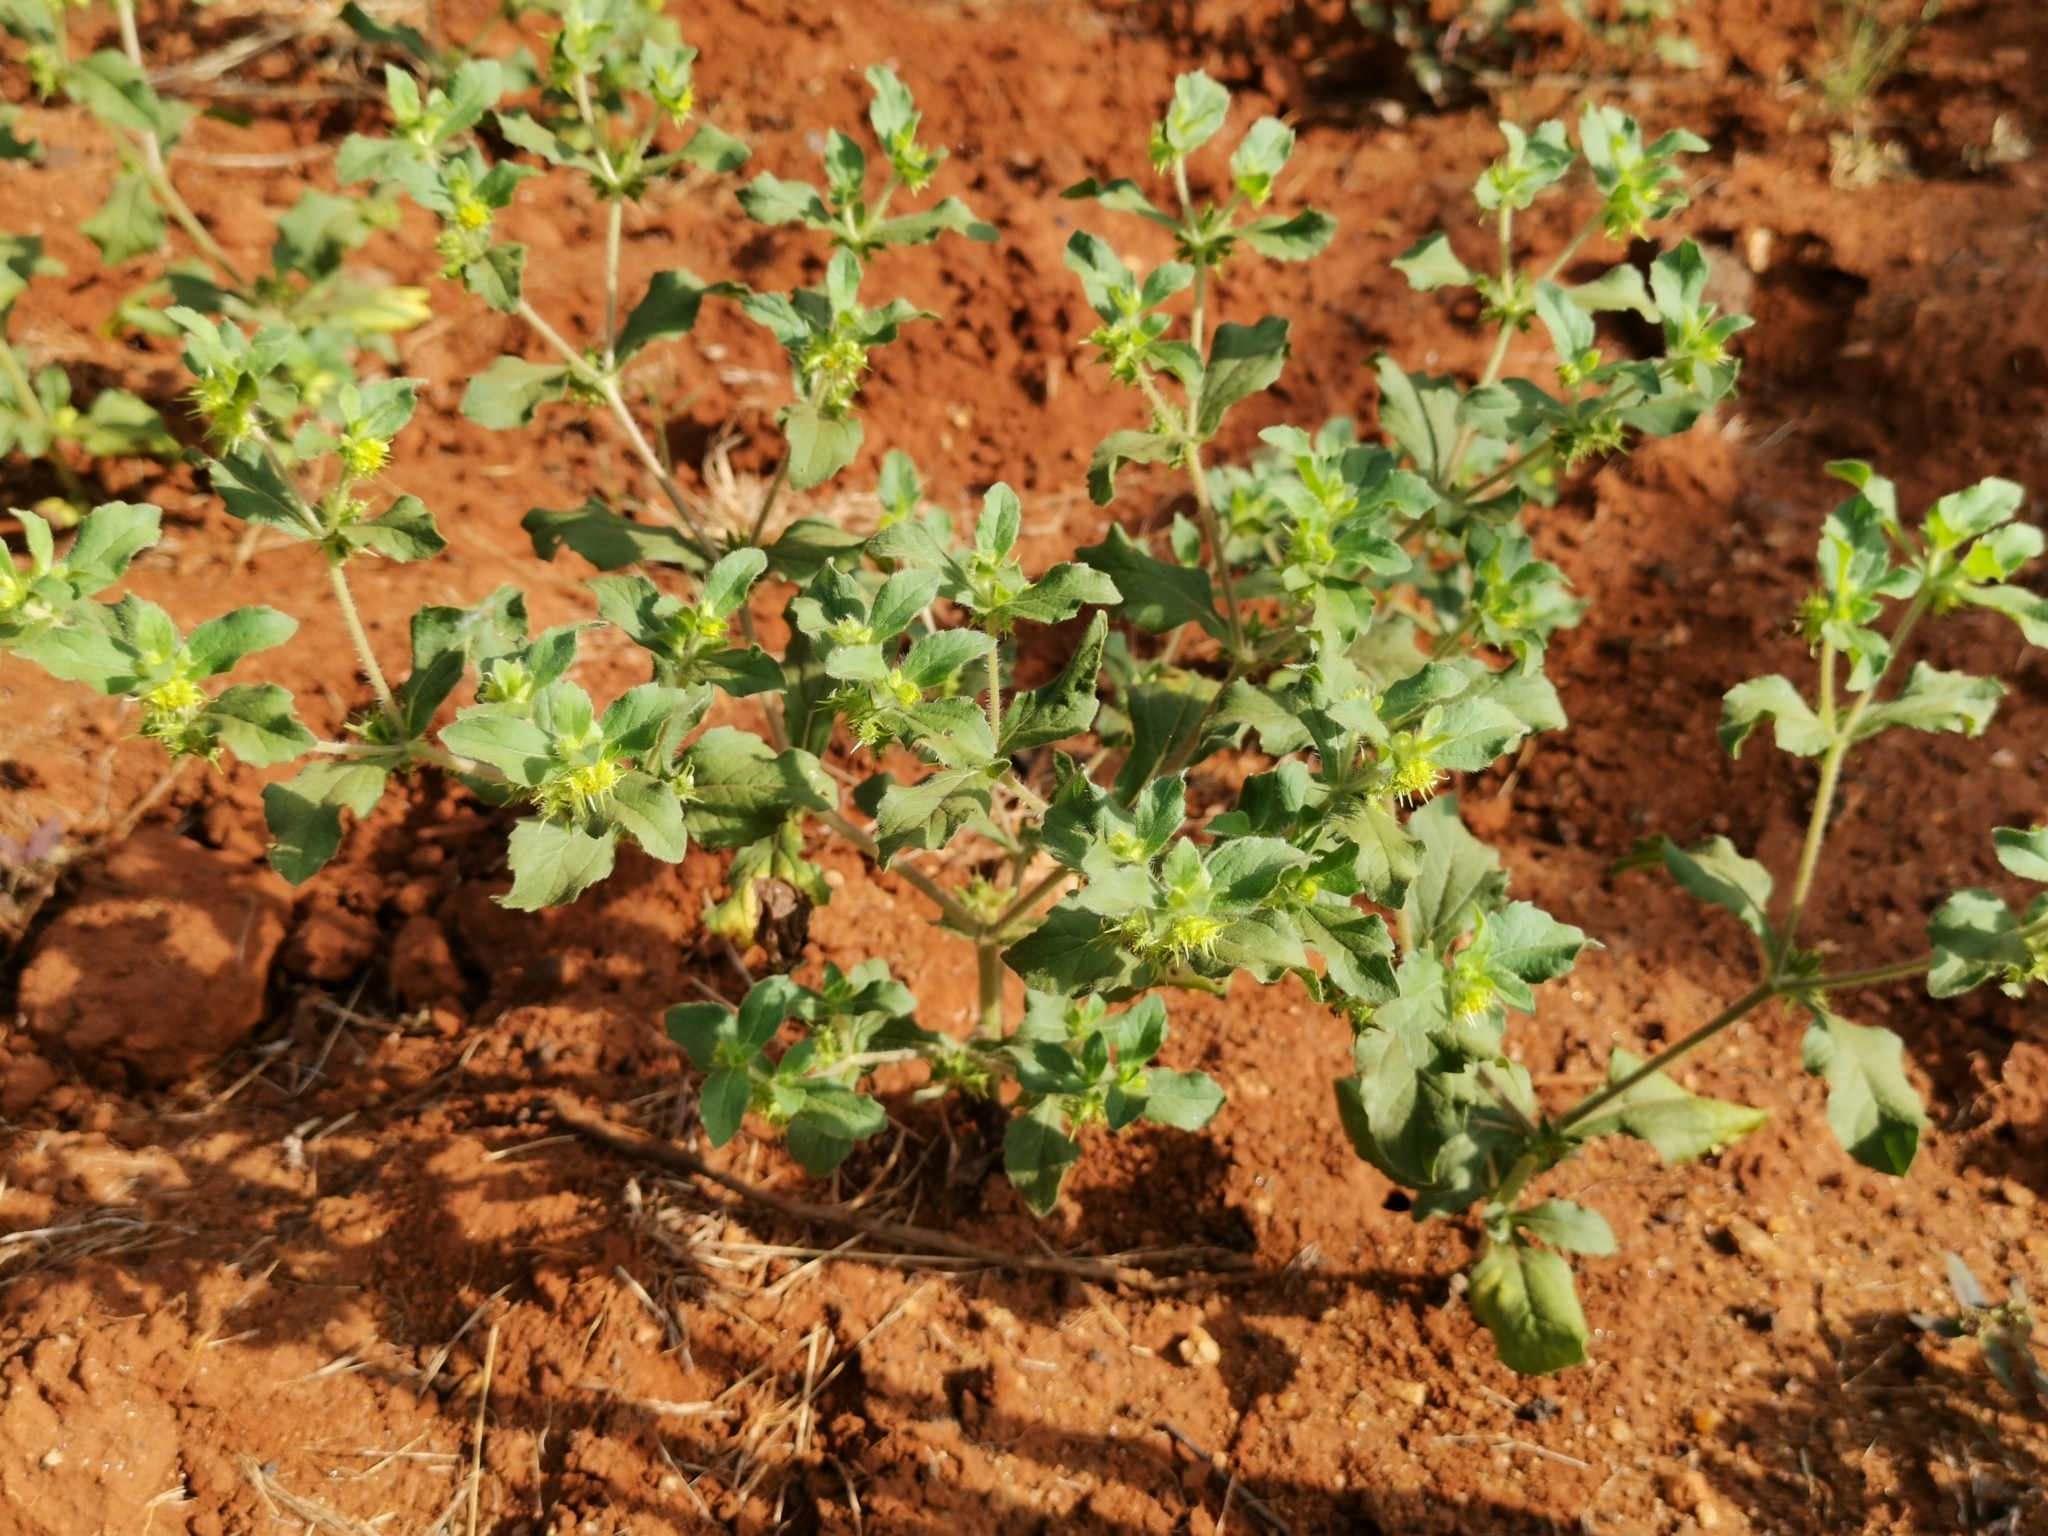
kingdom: Plantae
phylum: Tracheophyta
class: Magnoliopsida
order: Asterales
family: Asteraceae
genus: Acanthospermum
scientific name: Acanthospermum hispidum
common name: Hispid starbur
